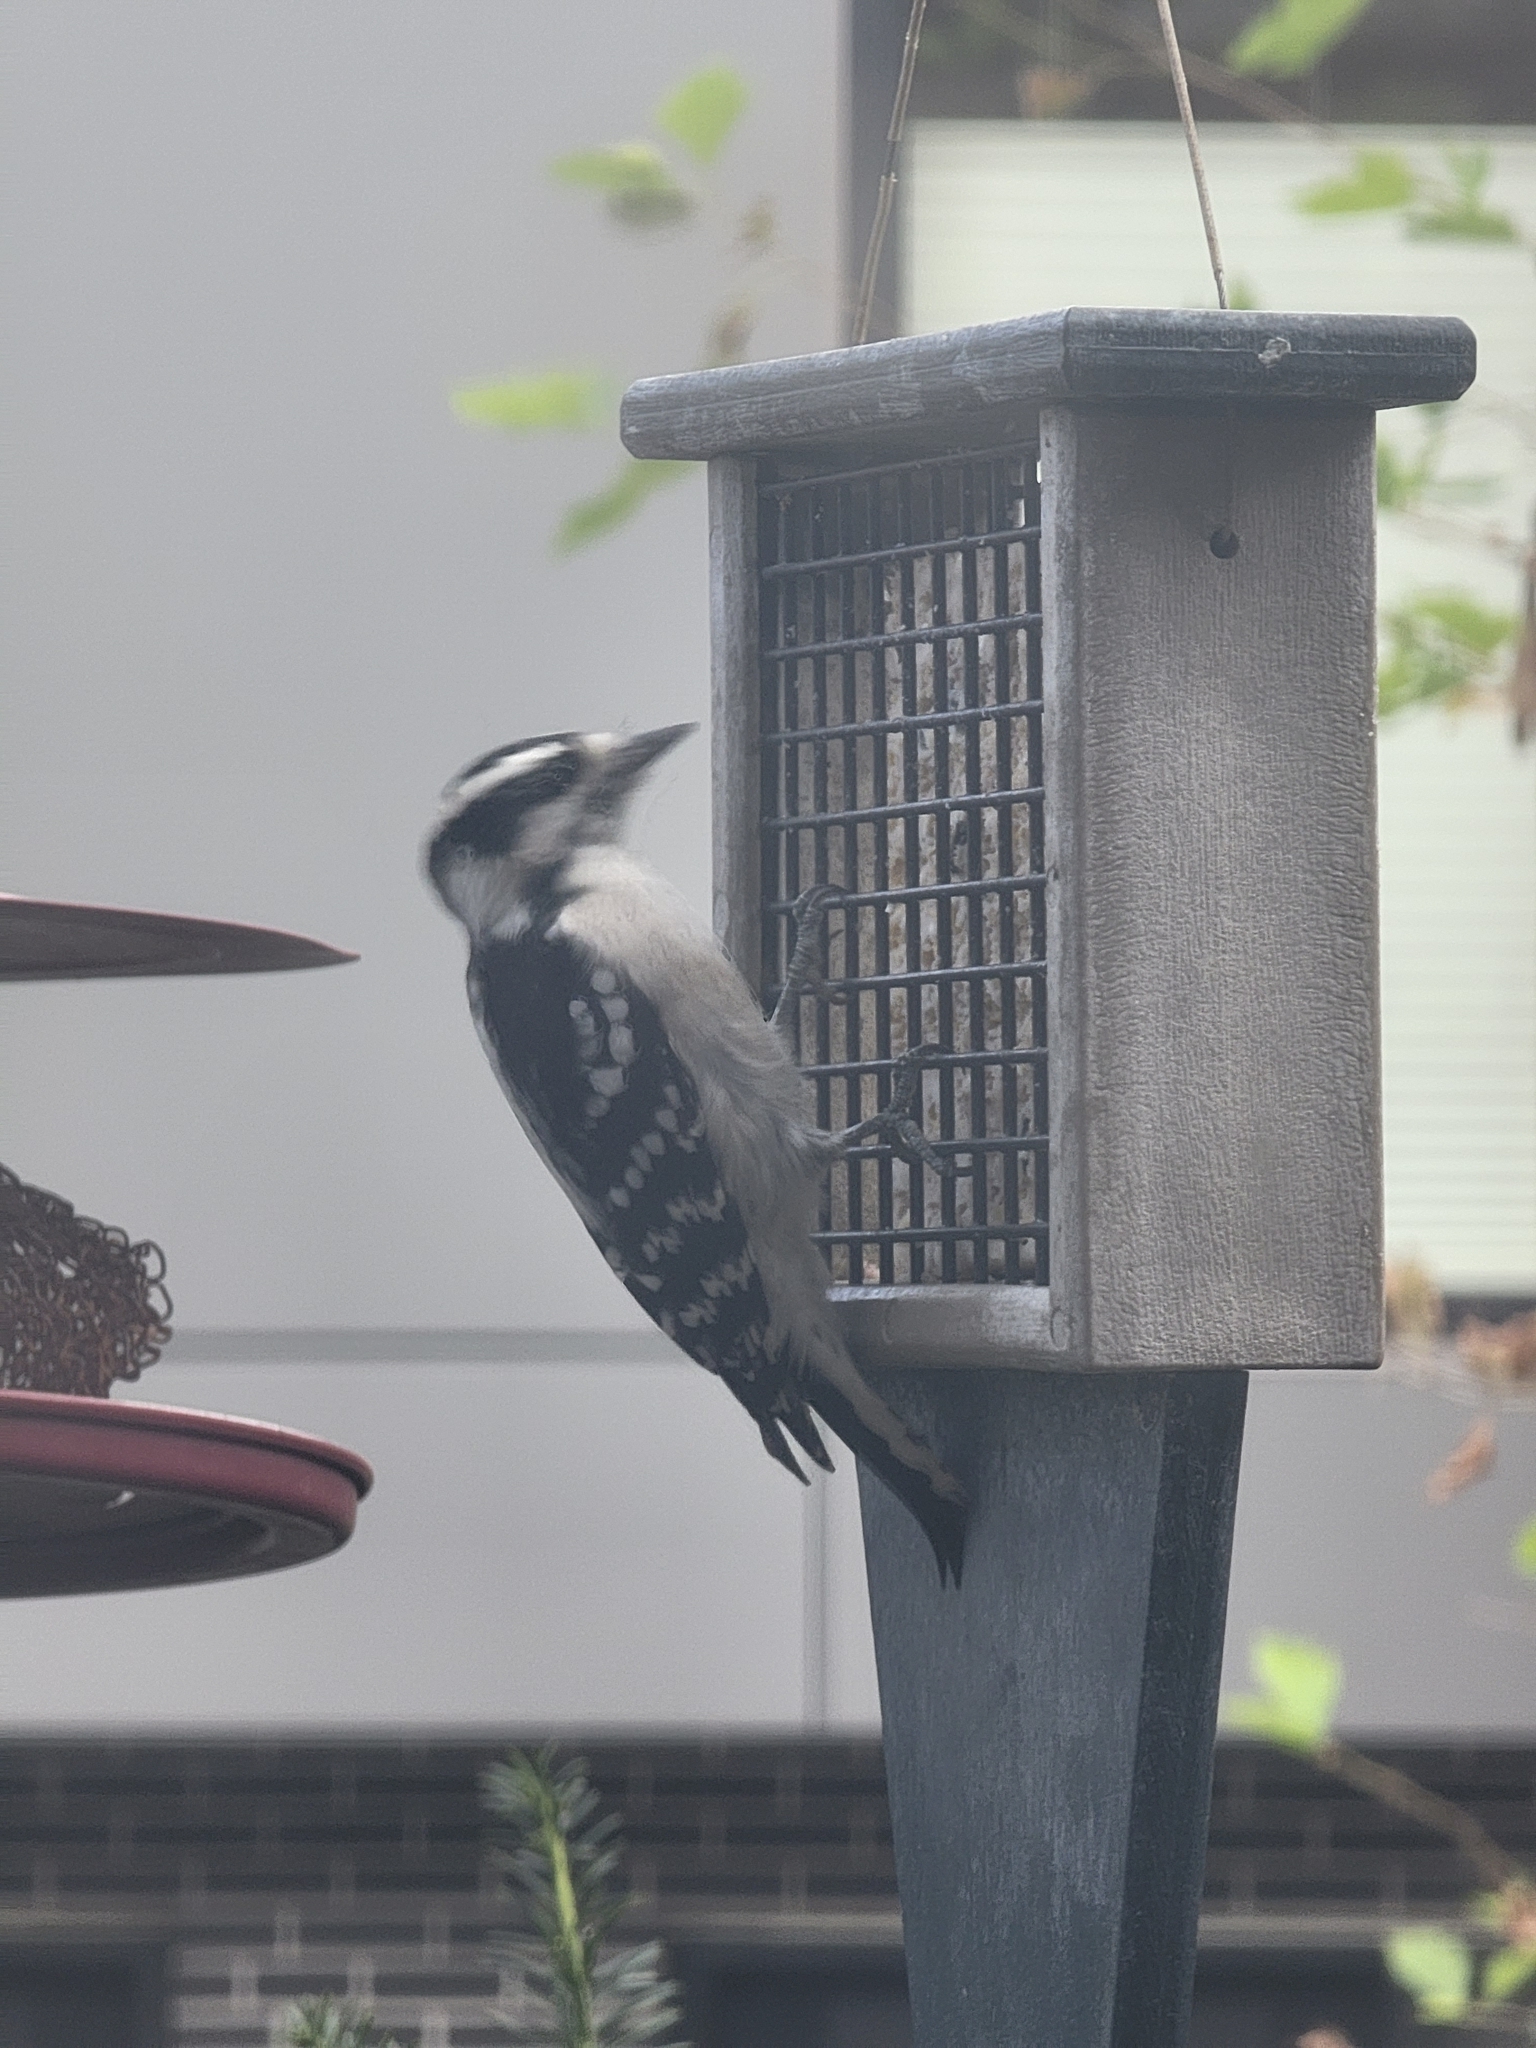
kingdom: Animalia
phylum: Chordata
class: Aves
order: Piciformes
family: Picidae
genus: Dryobates
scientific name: Dryobates pubescens
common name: Downy woodpecker
